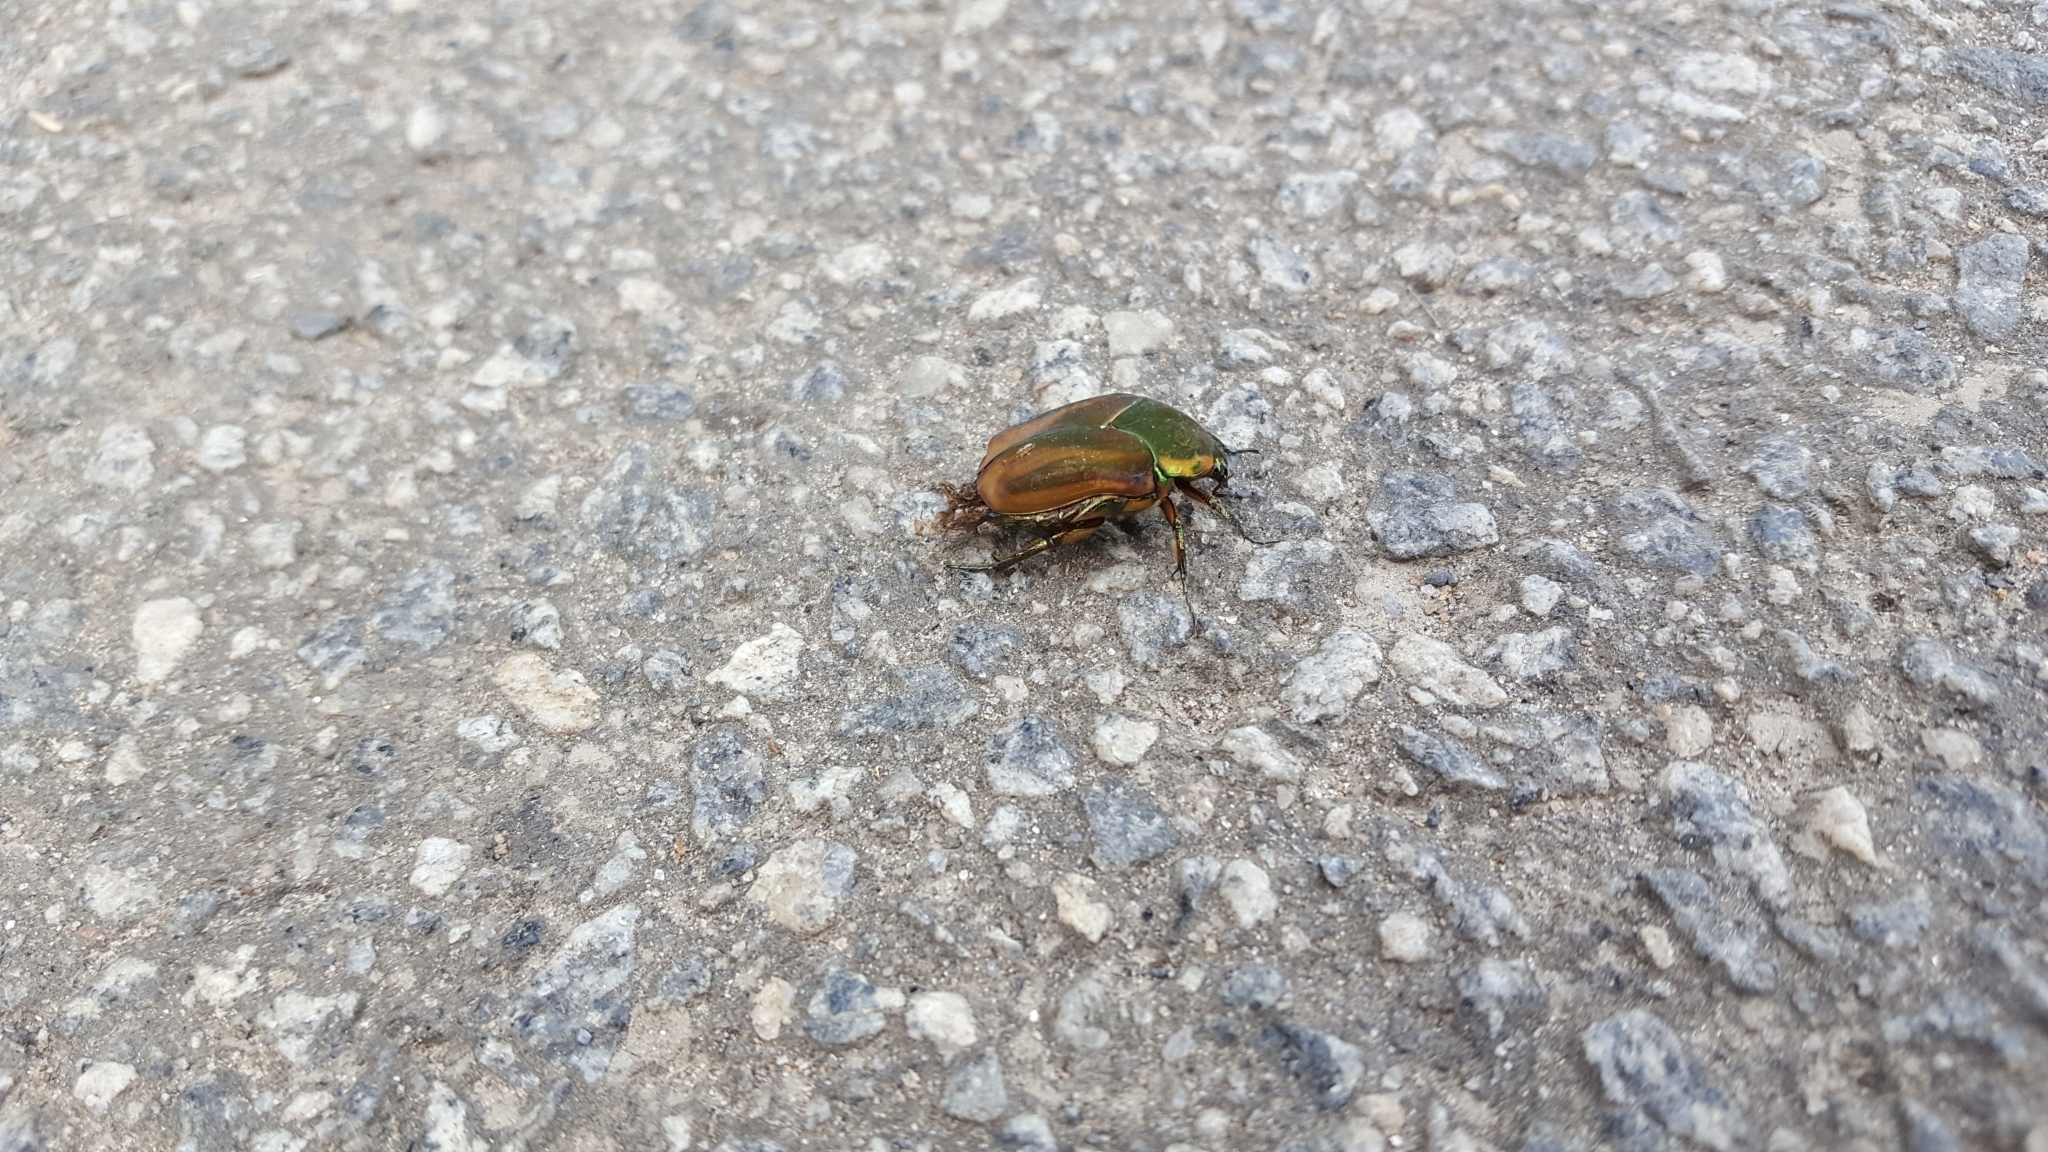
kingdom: Animalia
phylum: Arthropoda
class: Insecta
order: Coleoptera
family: Scarabaeidae
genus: Cotinis
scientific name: Cotinis nitida
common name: Common green june beetle
